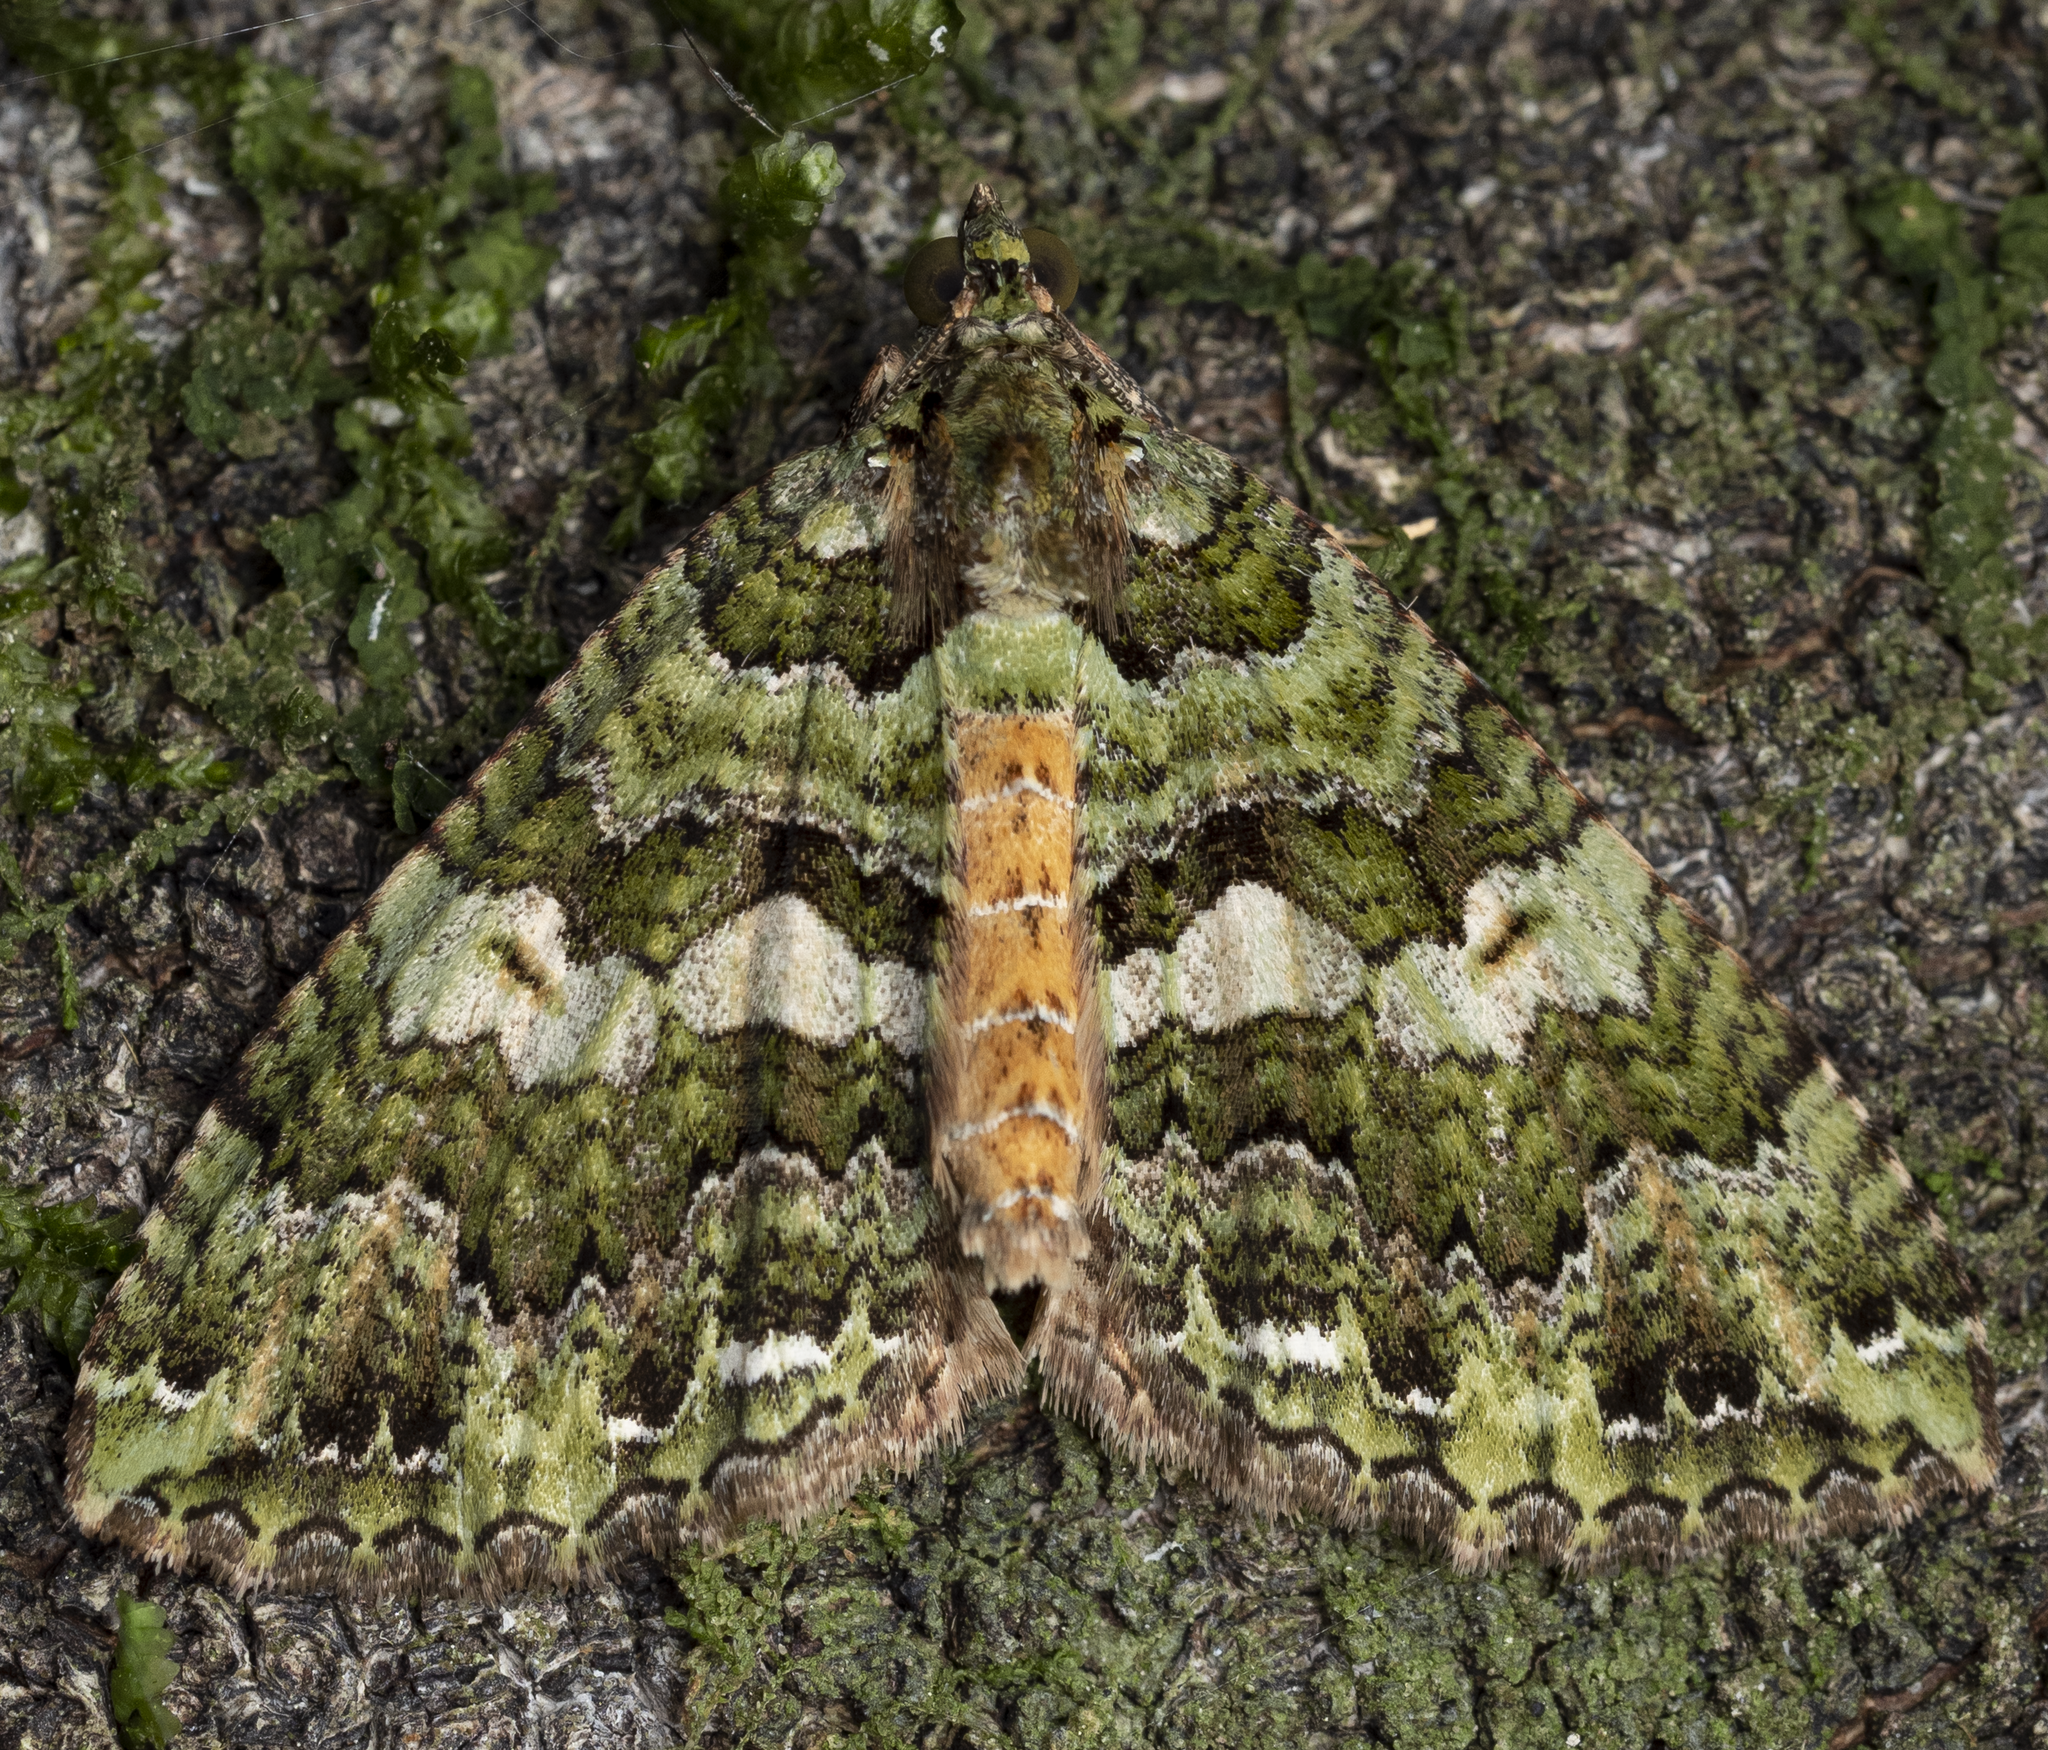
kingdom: Animalia
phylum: Arthropoda
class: Insecta
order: Lepidoptera
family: Geometridae
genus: Austrocidaria
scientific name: Austrocidaria similata
